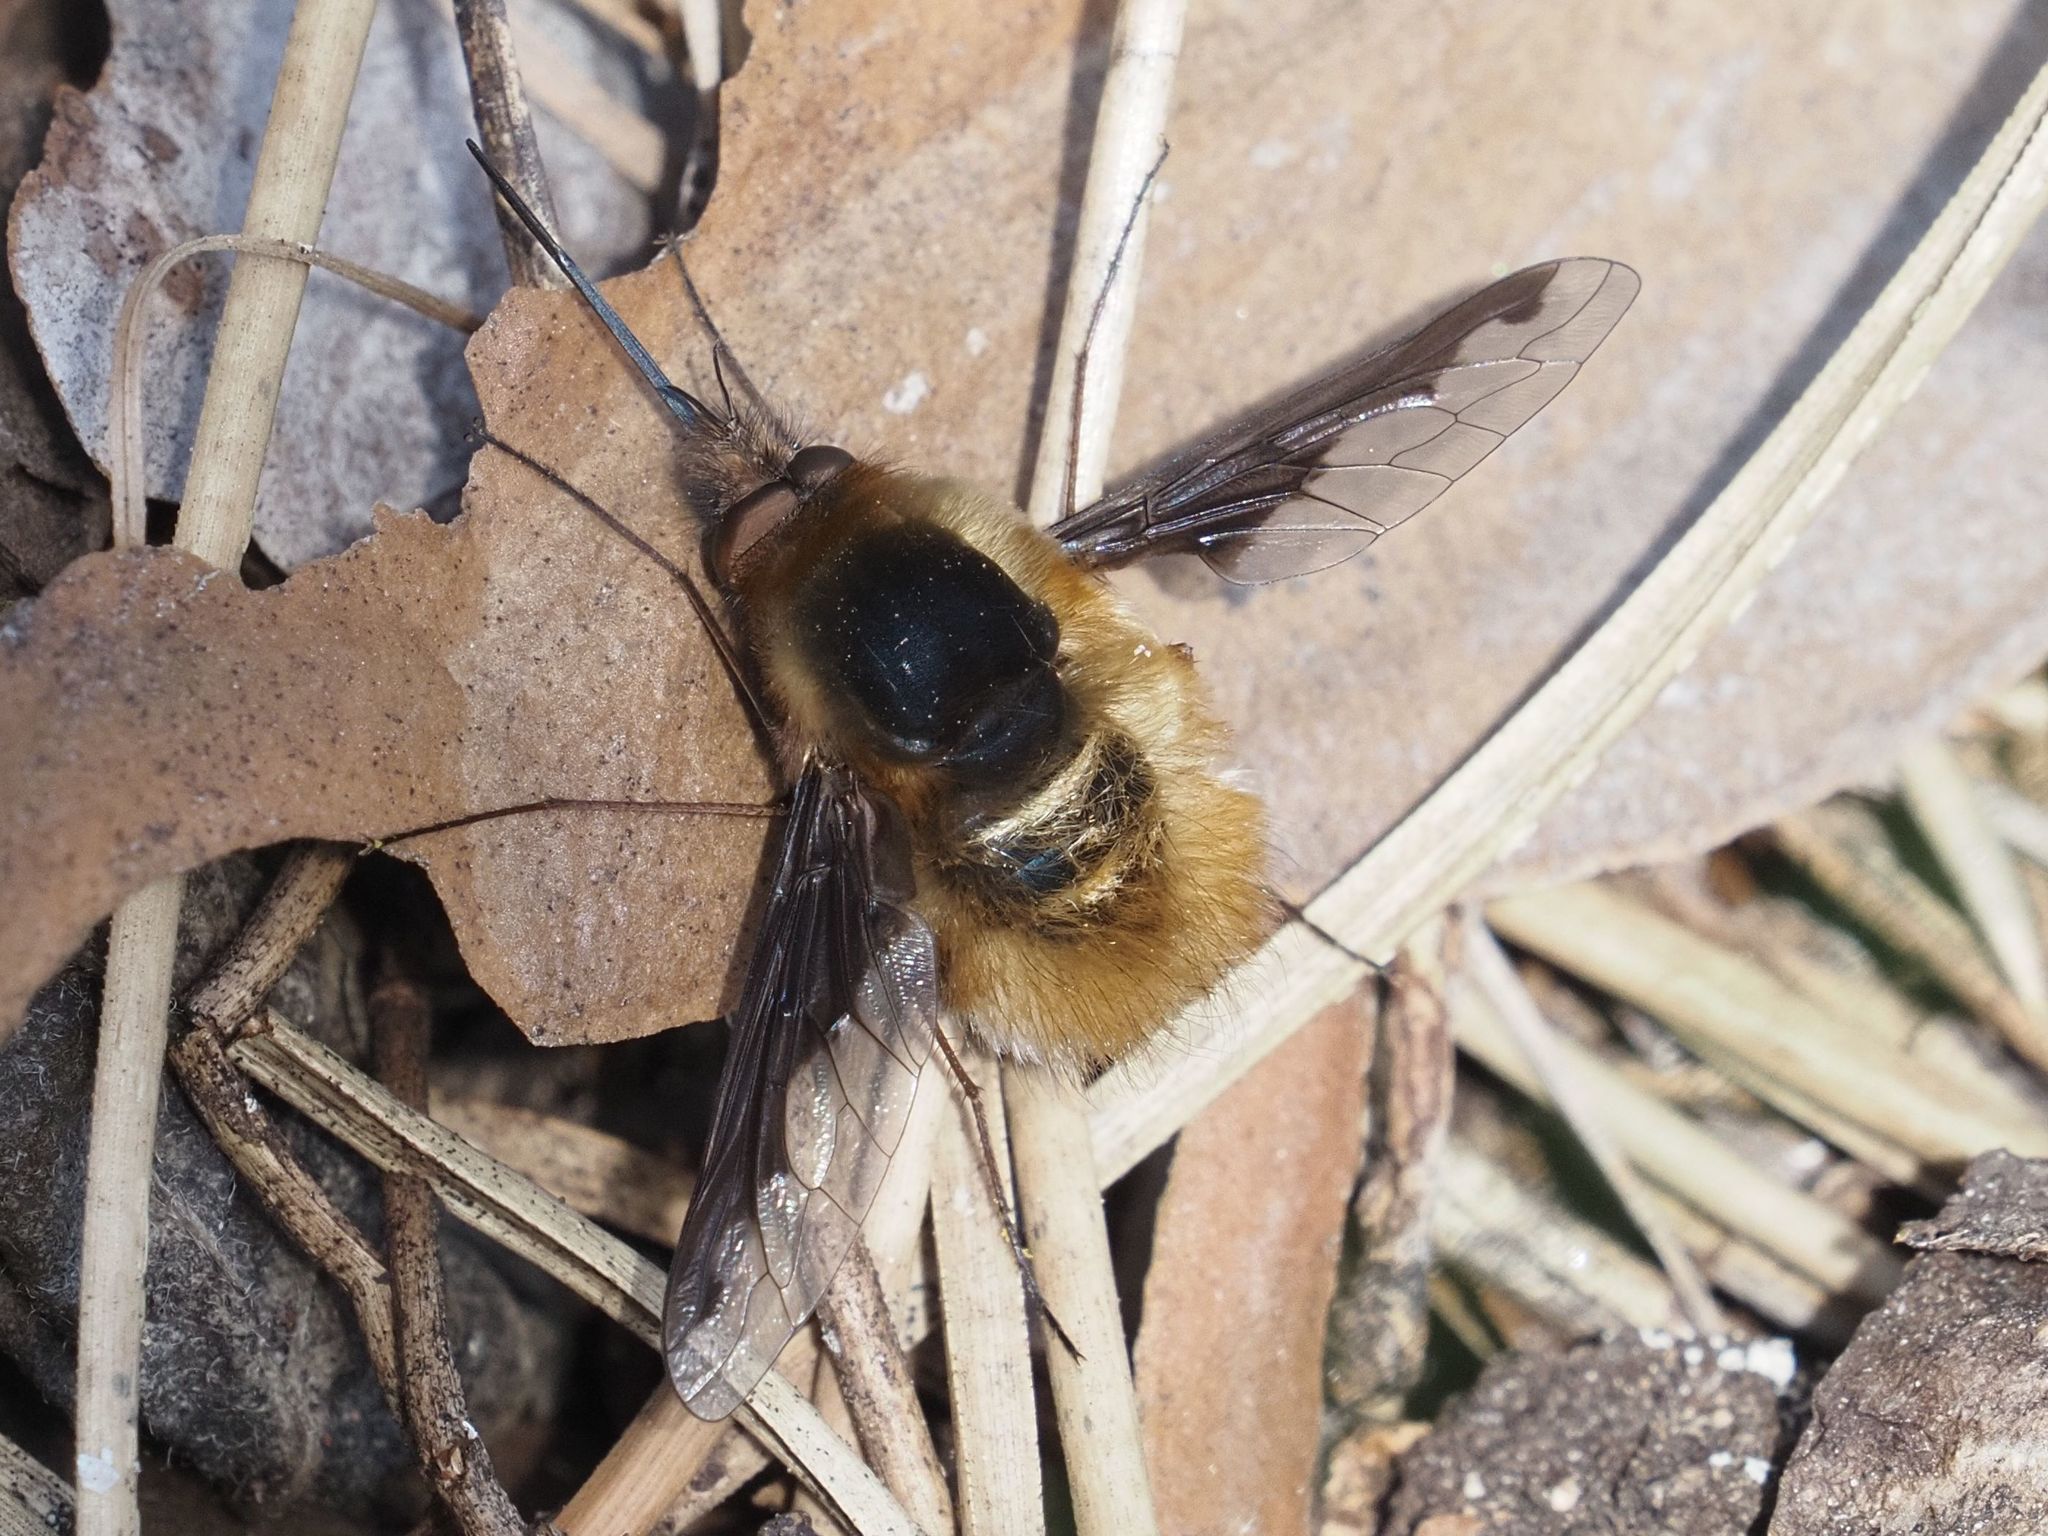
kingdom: Animalia
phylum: Arthropoda
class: Insecta
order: Diptera
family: Bombyliidae
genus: Bombylius
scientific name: Bombylius major
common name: Bee fly
